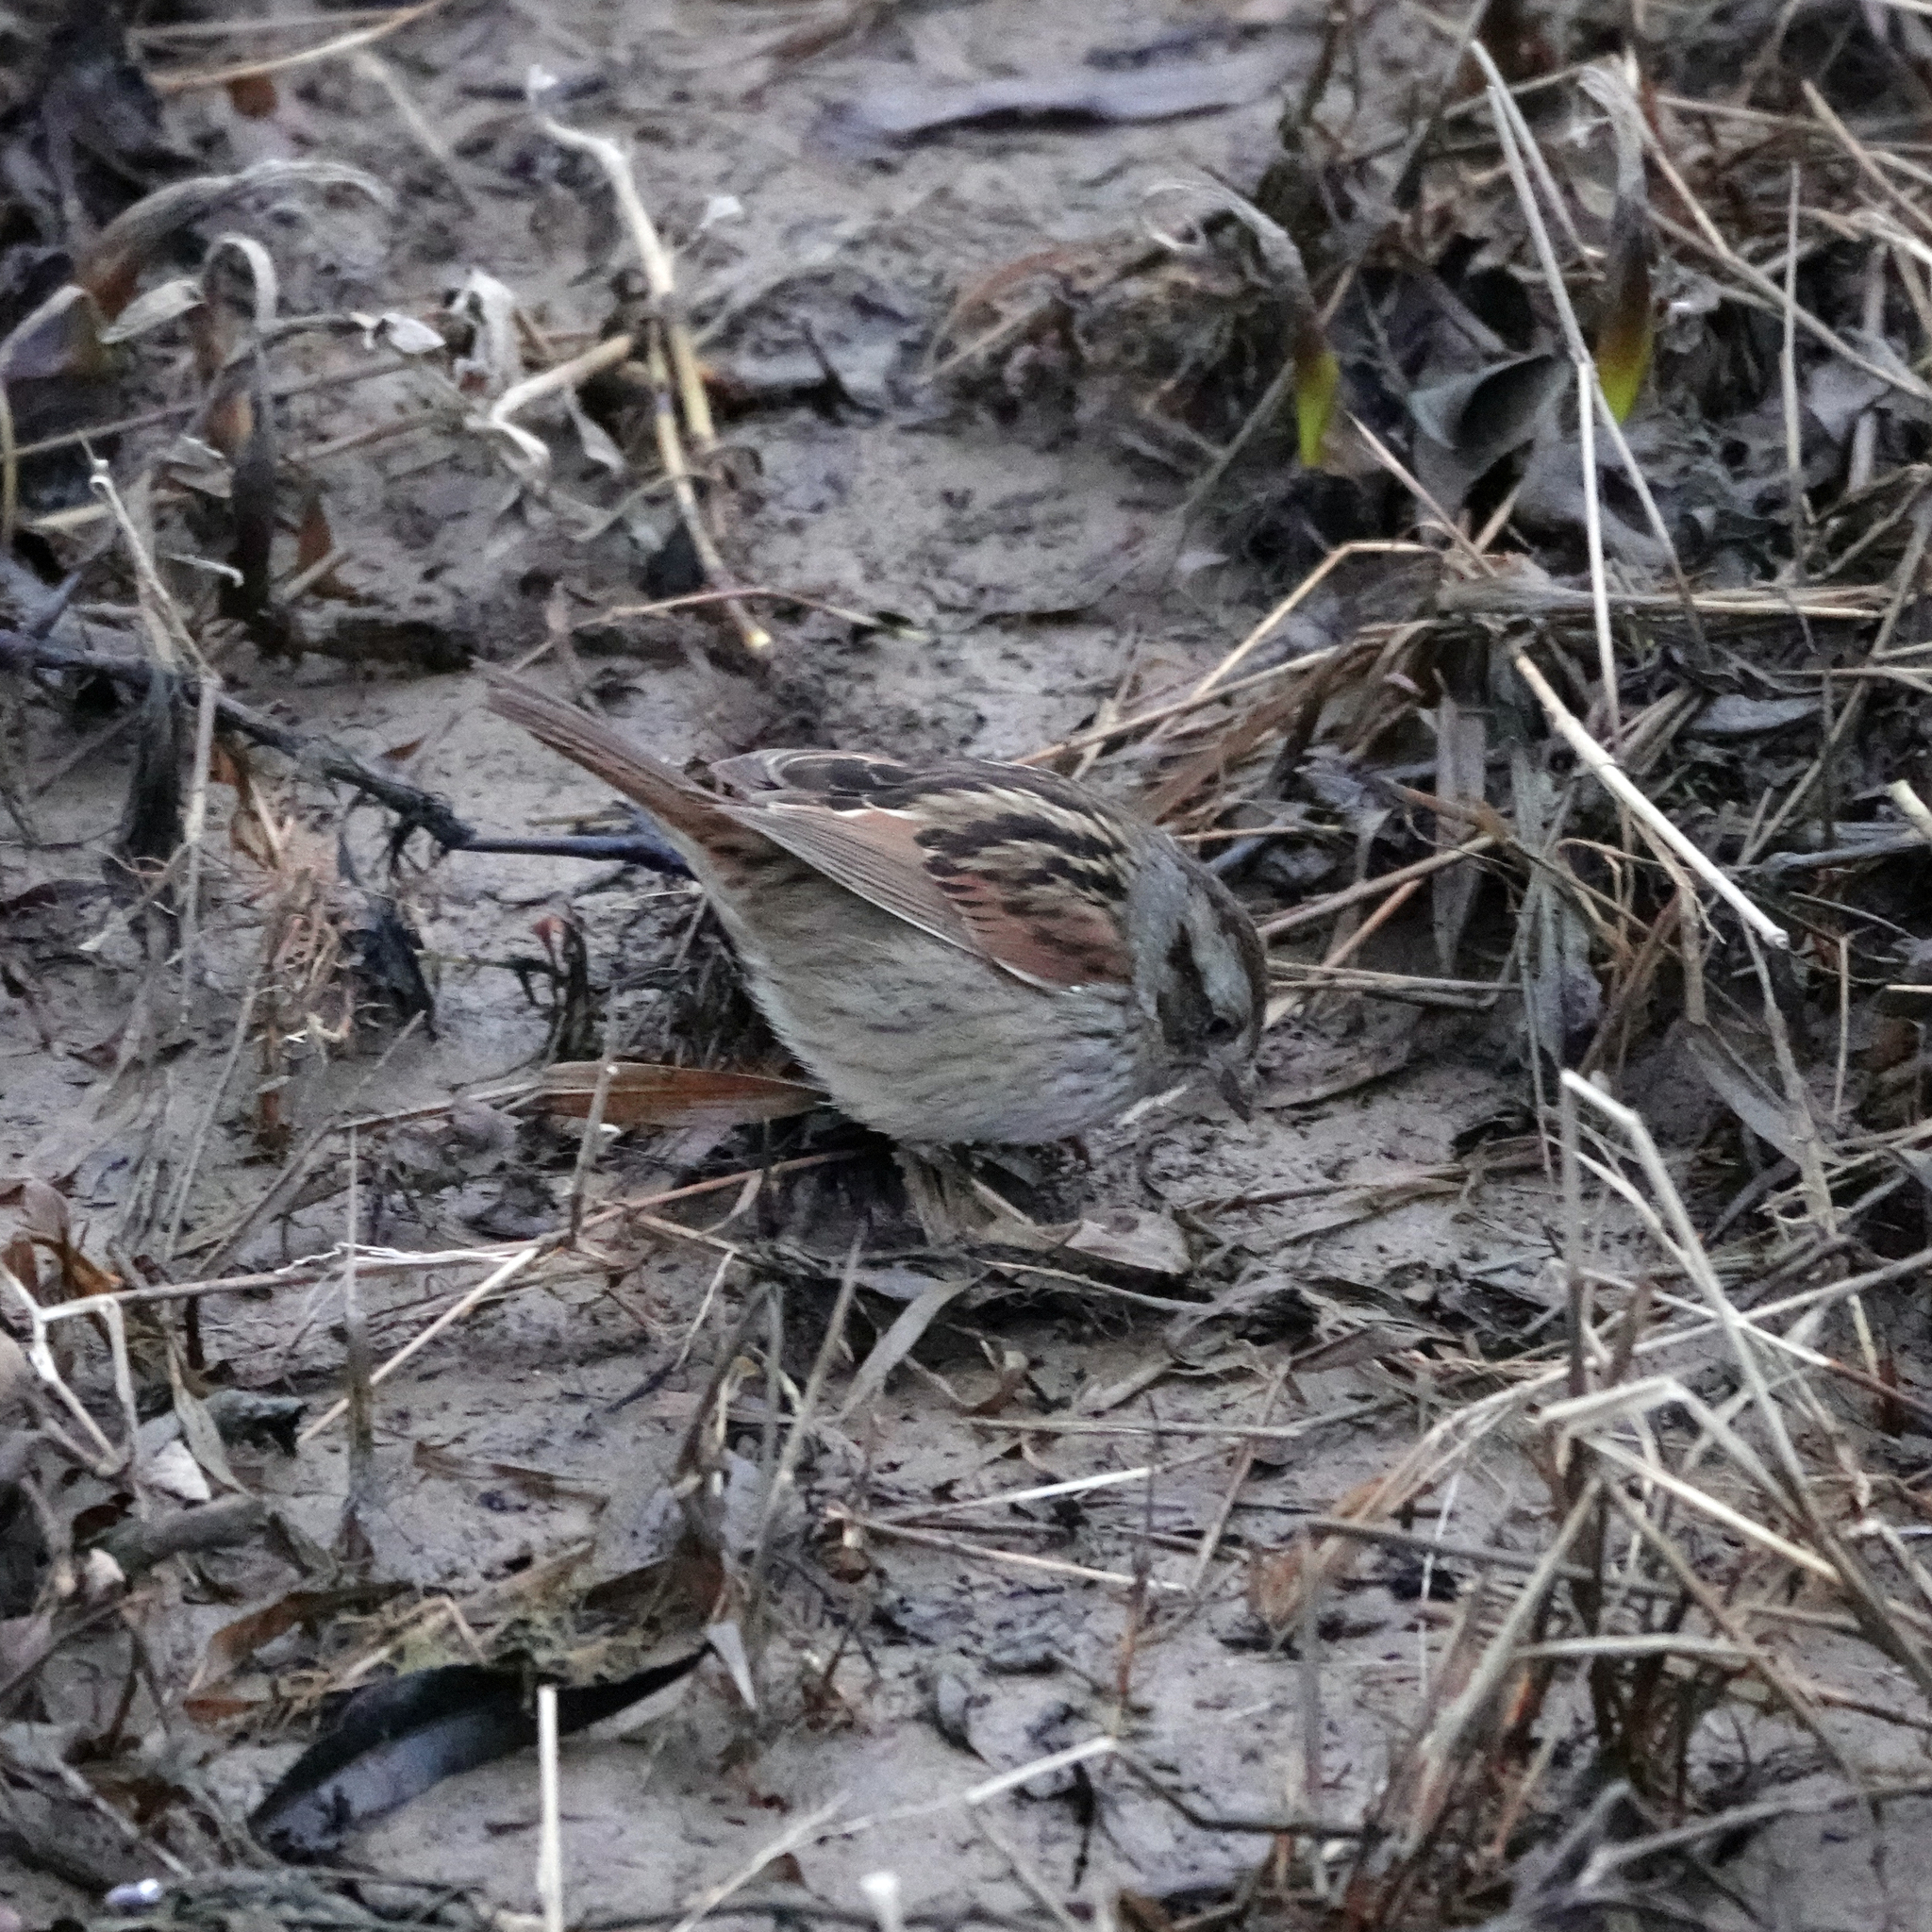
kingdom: Animalia
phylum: Chordata
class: Aves
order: Passeriformes
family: Passerellidae
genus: Melospiza
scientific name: Melospiza georgiana
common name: Swamp sparrow
